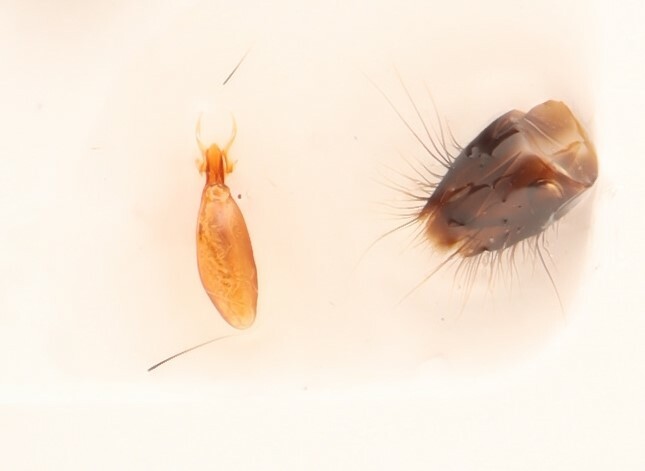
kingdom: Animalia
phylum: Arthropoda
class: Insecta
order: Coleoptera
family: Staphylinidae
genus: Gauropterus
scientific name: Gauropterus fulgidus
